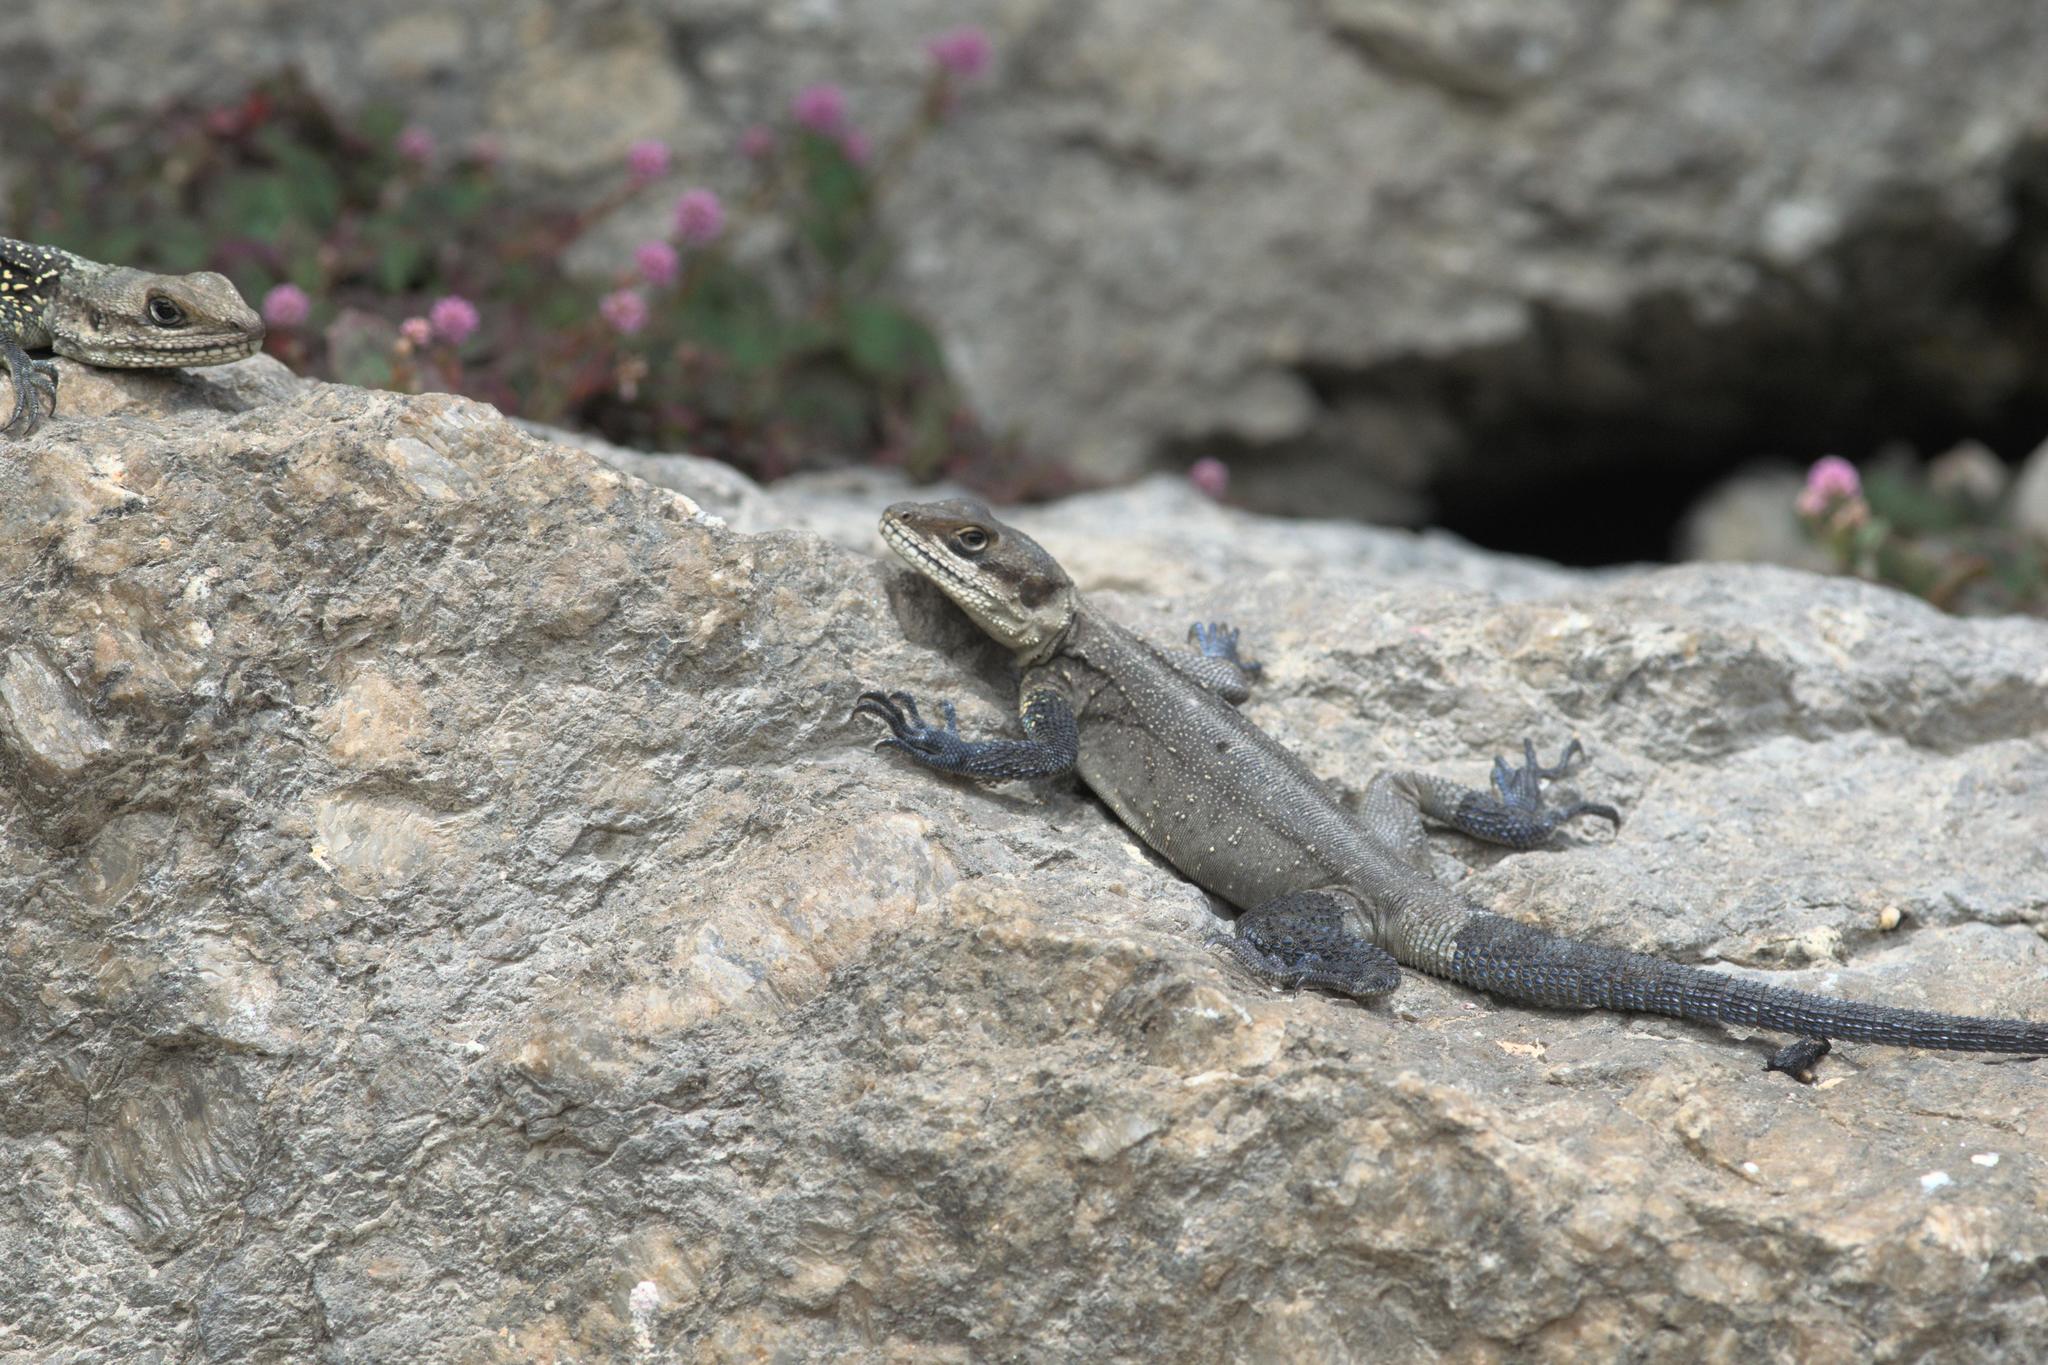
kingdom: Animalia
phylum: Chordata
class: Squamata
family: Agamidae
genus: Laudakia
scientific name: Laudakia tuberculata
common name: Kashmir rock agama
